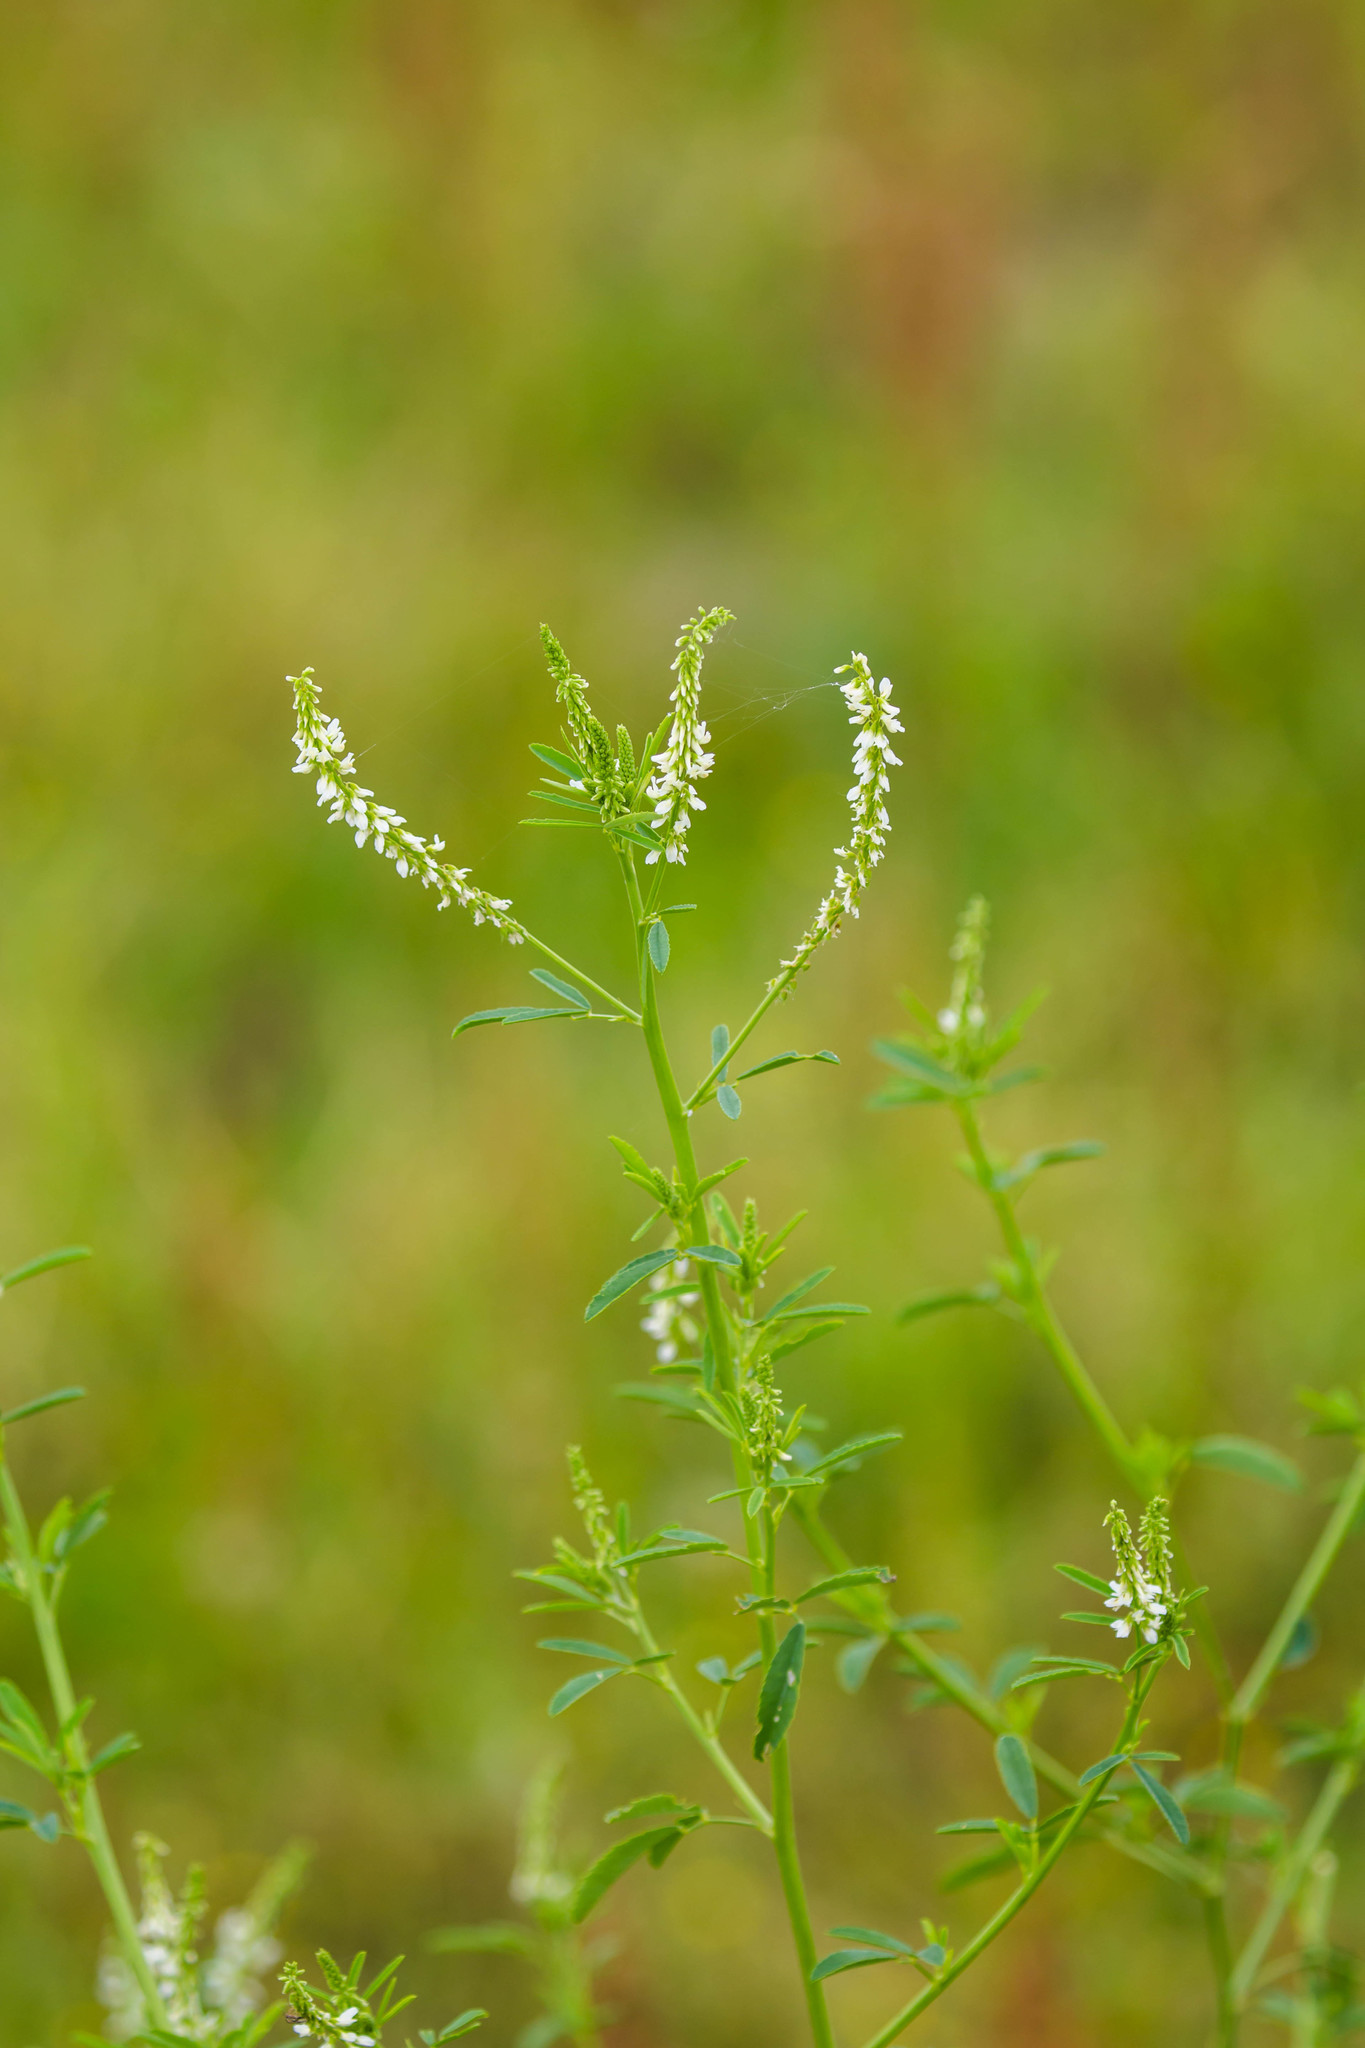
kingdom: Plantae
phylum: Tracheophyta
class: Magnoliopsida
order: Fabales
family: Fabaceae
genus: Melilotus
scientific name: Melilotus albus
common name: White melilot
